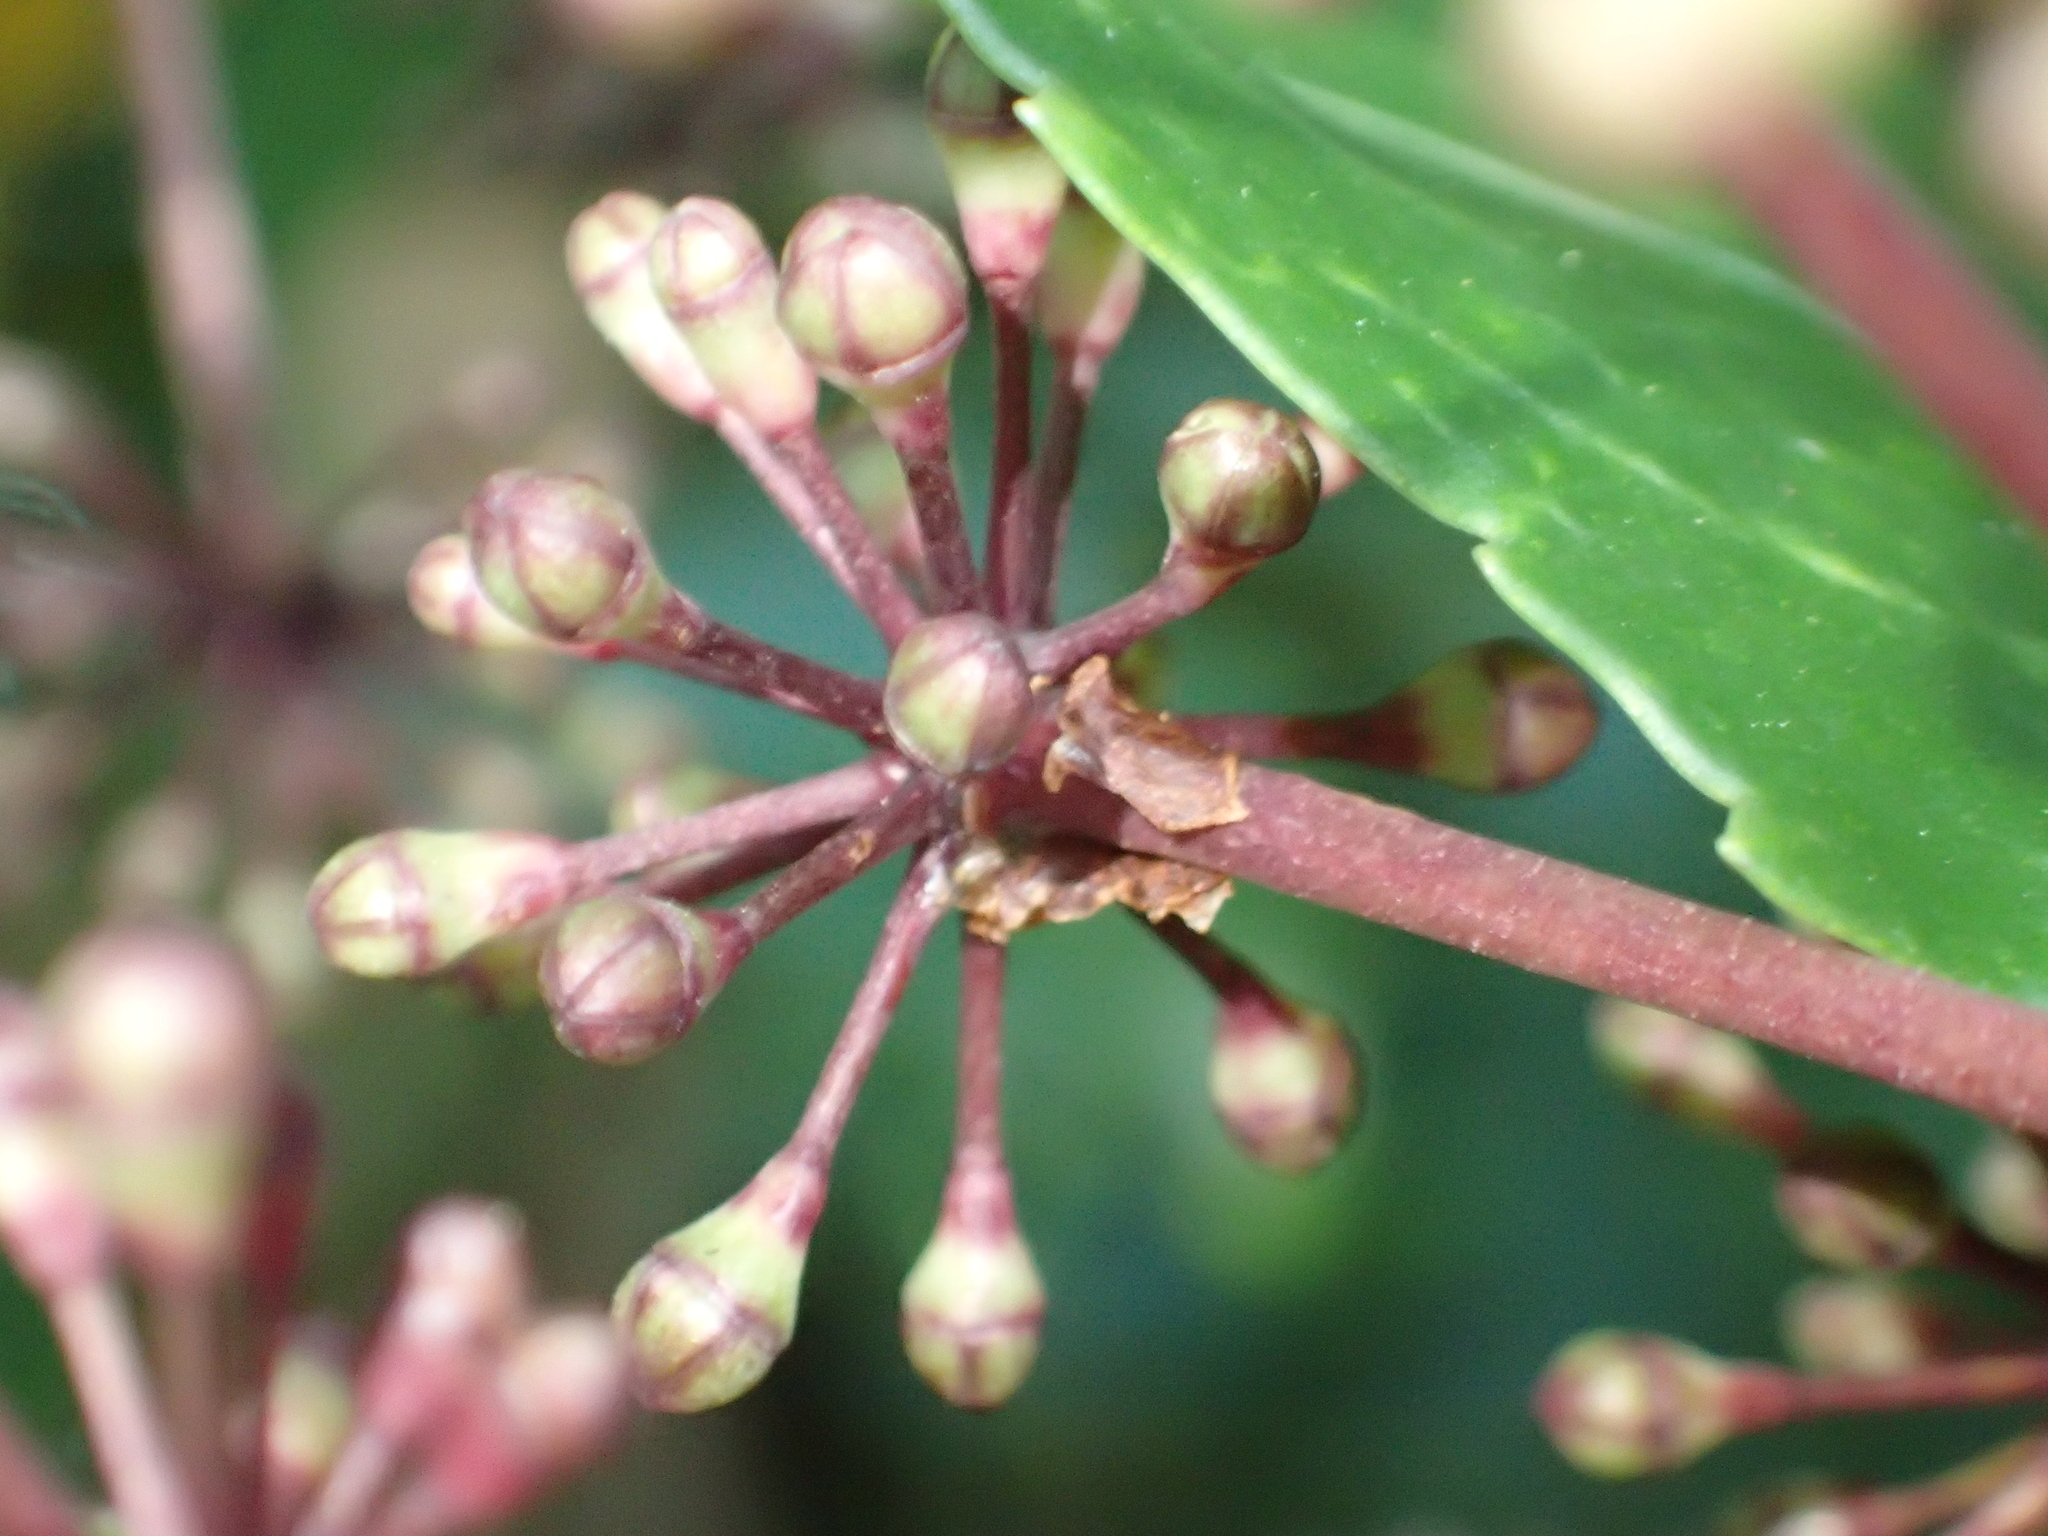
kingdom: Plantae
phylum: Tracheophyta
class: Magnoliopsida
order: Apiales
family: Araliaceae
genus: Neopanax
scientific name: Neopanax arboreus
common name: Five-fingers
